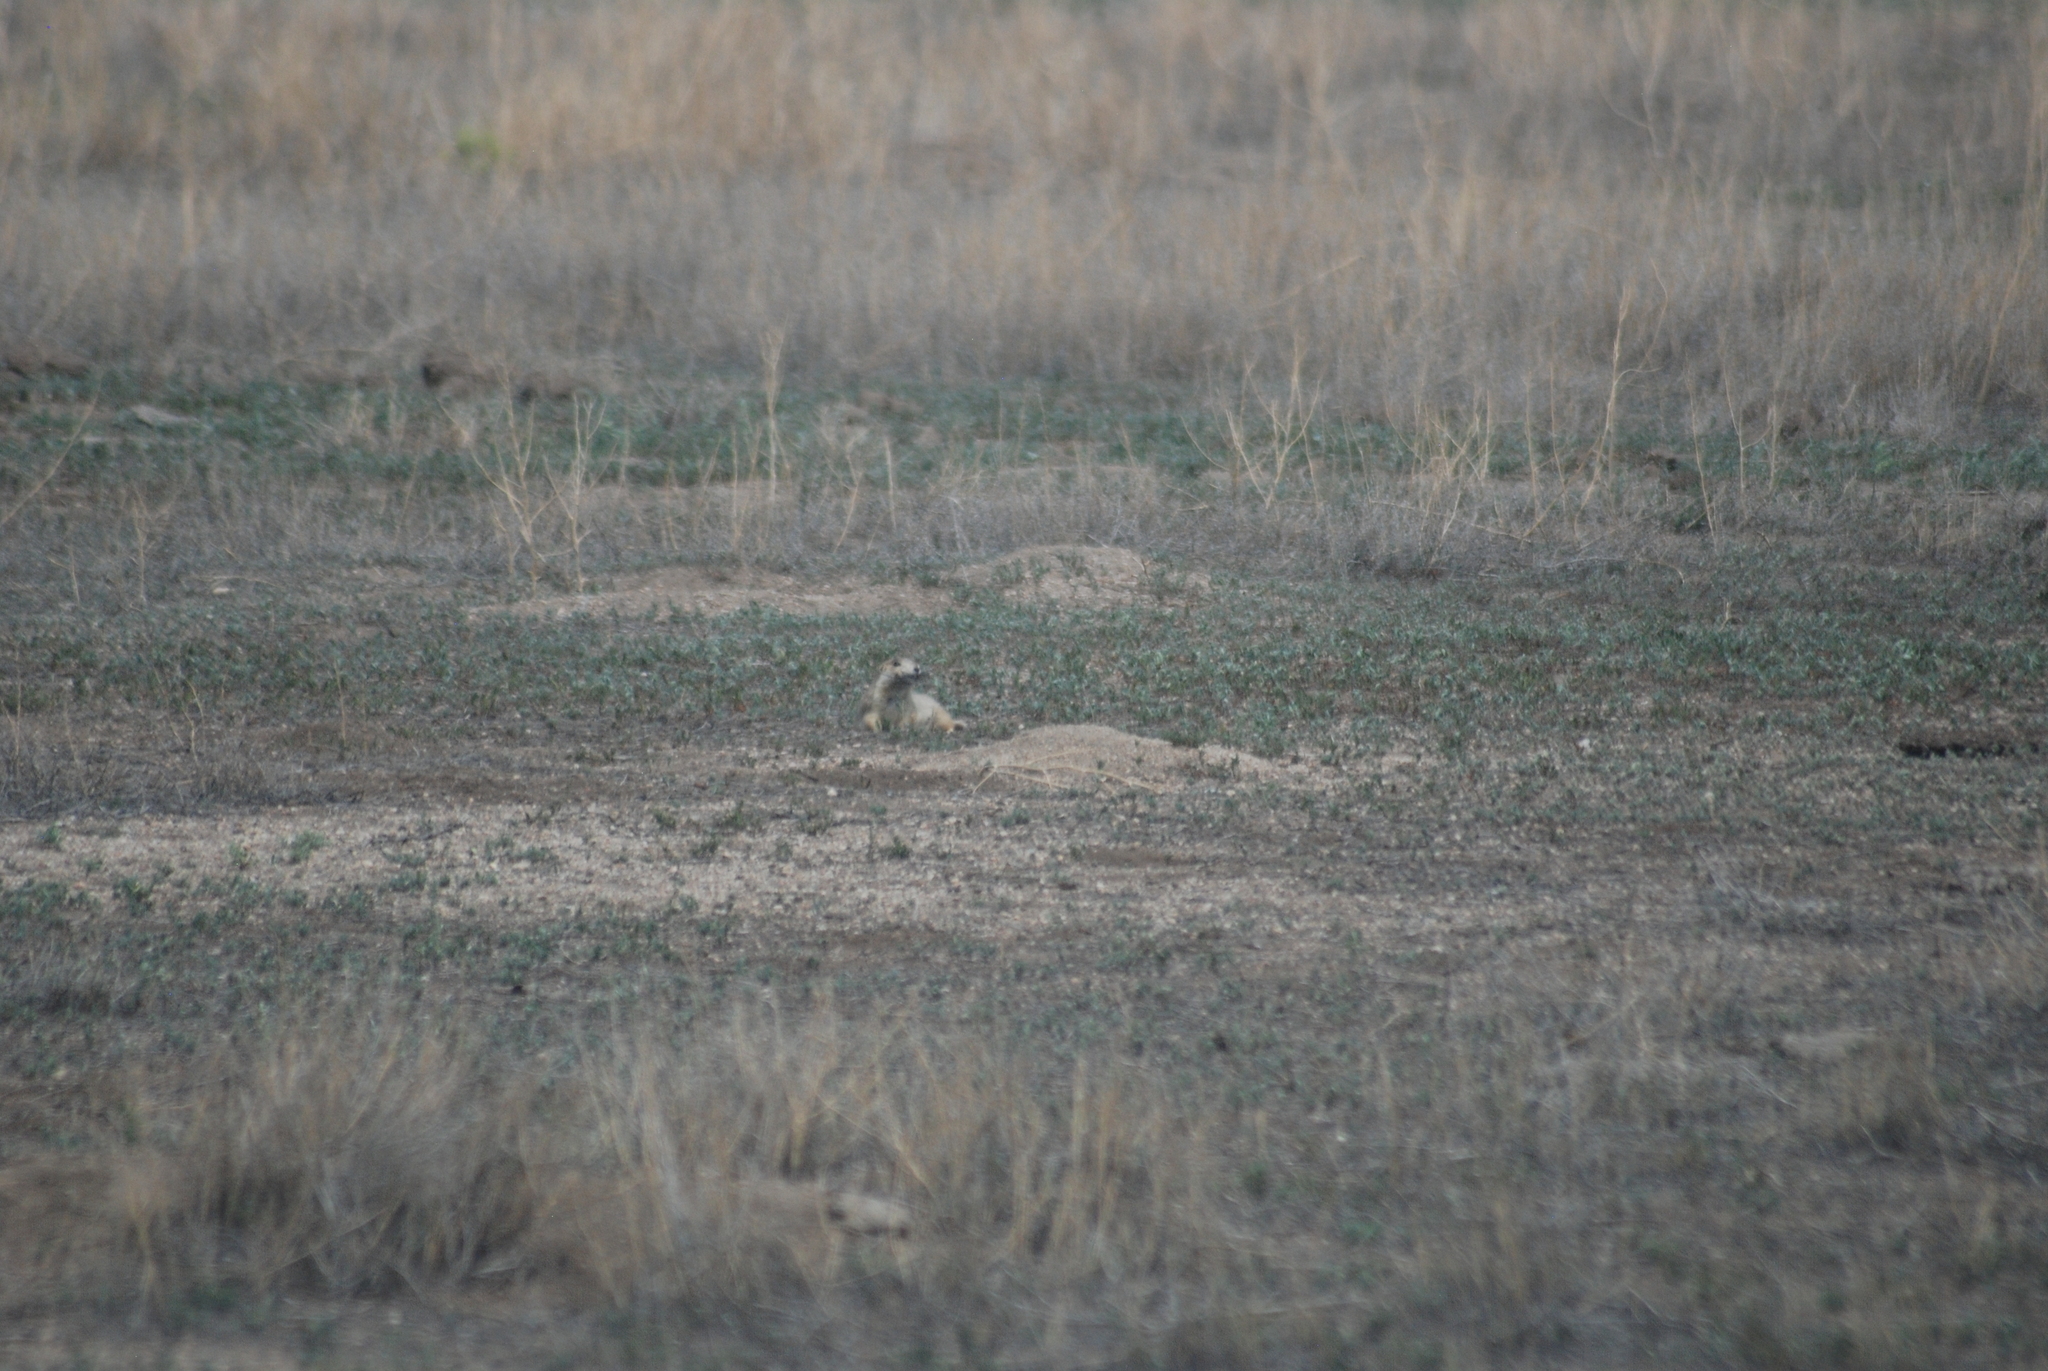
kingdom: Animalia
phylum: Chordata
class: Mammalia
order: Rodentia
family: Sciuridae
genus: Cynomys
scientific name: Cynomys gunnisoni
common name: Gunnison's prairie dog
